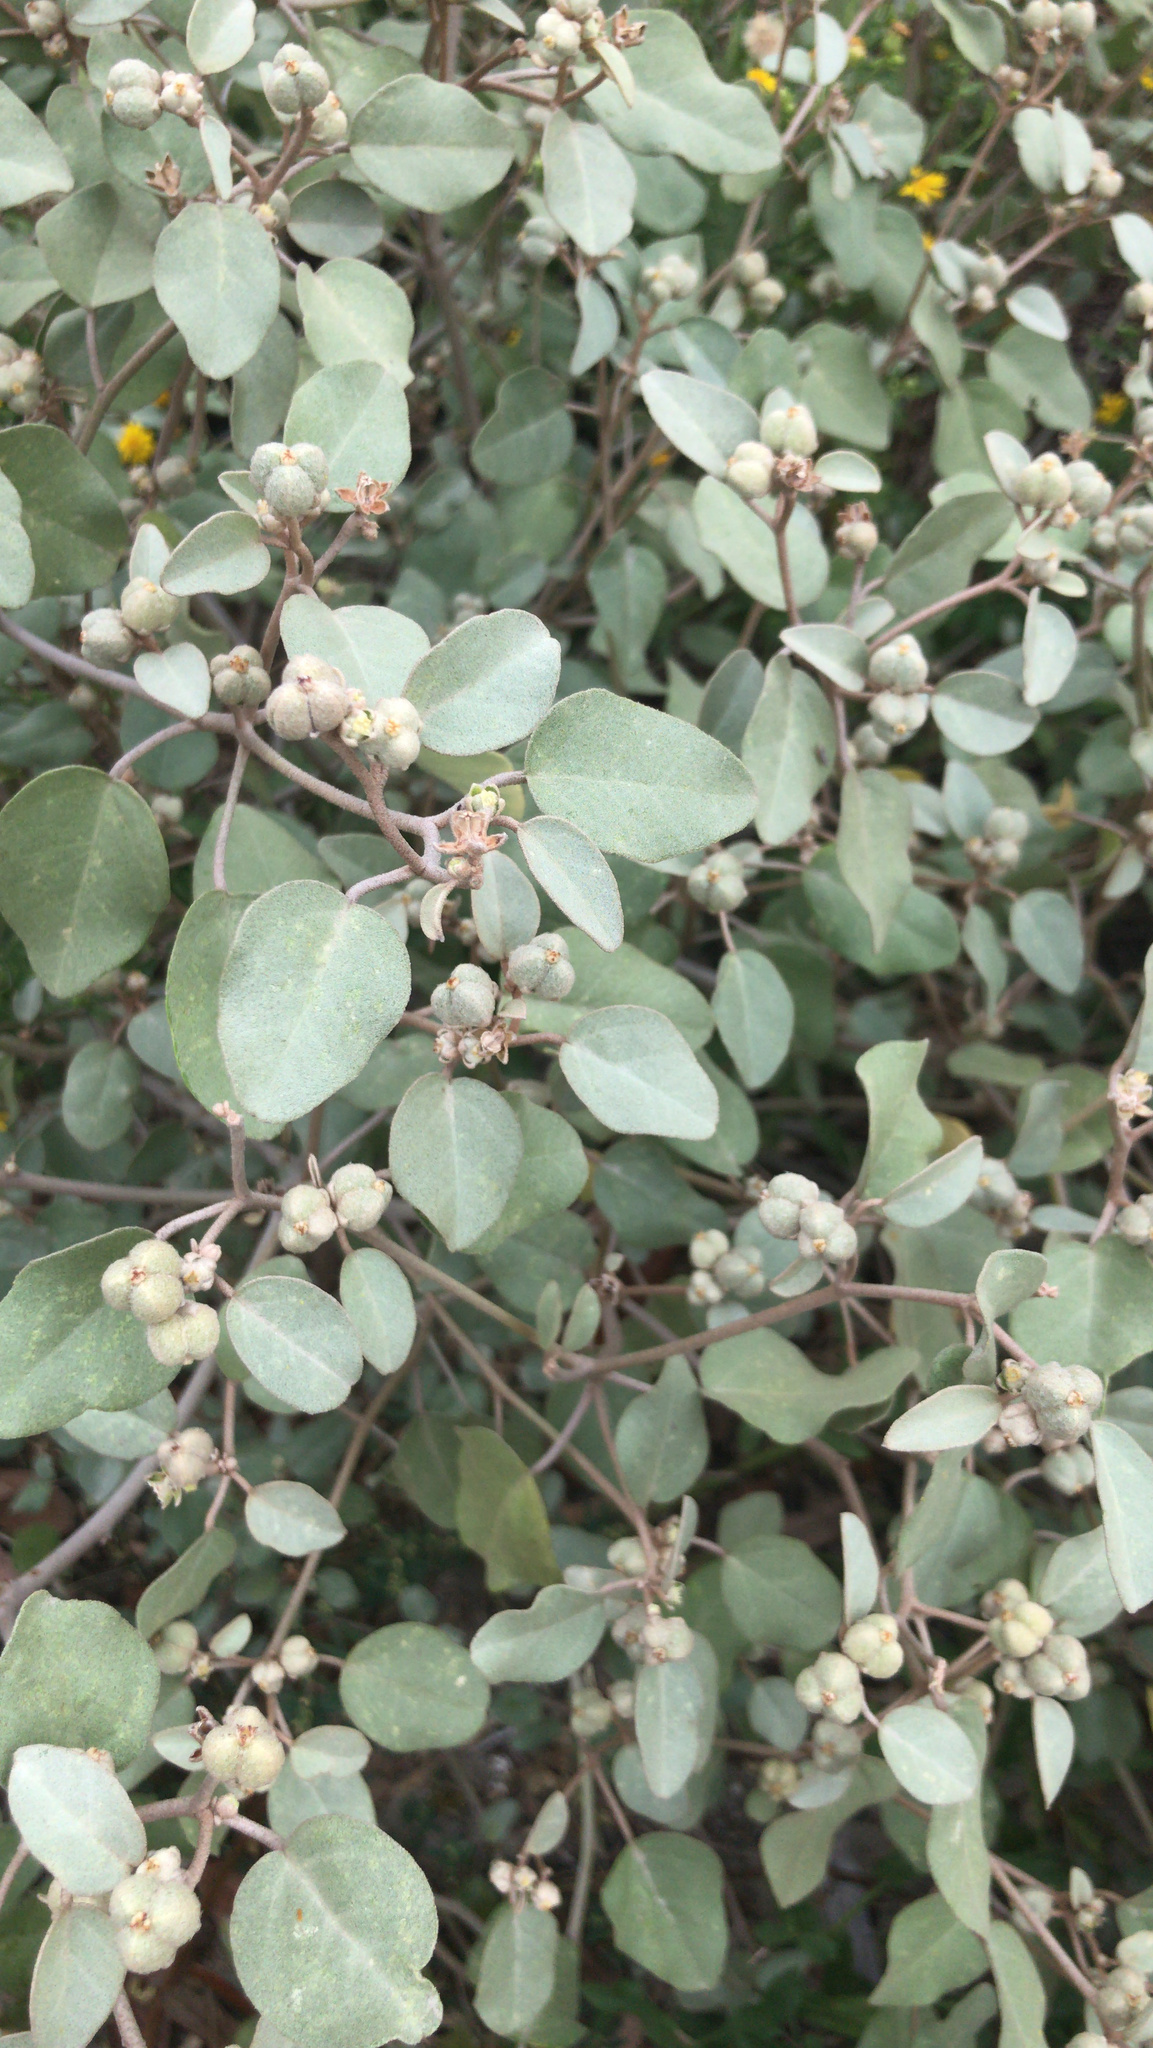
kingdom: Plantae
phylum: Tracheophyta
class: Magnoliopsida
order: Malpighiales
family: Euphorbiaceae
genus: Croton
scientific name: Croton punctatus
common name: Beach-tea
